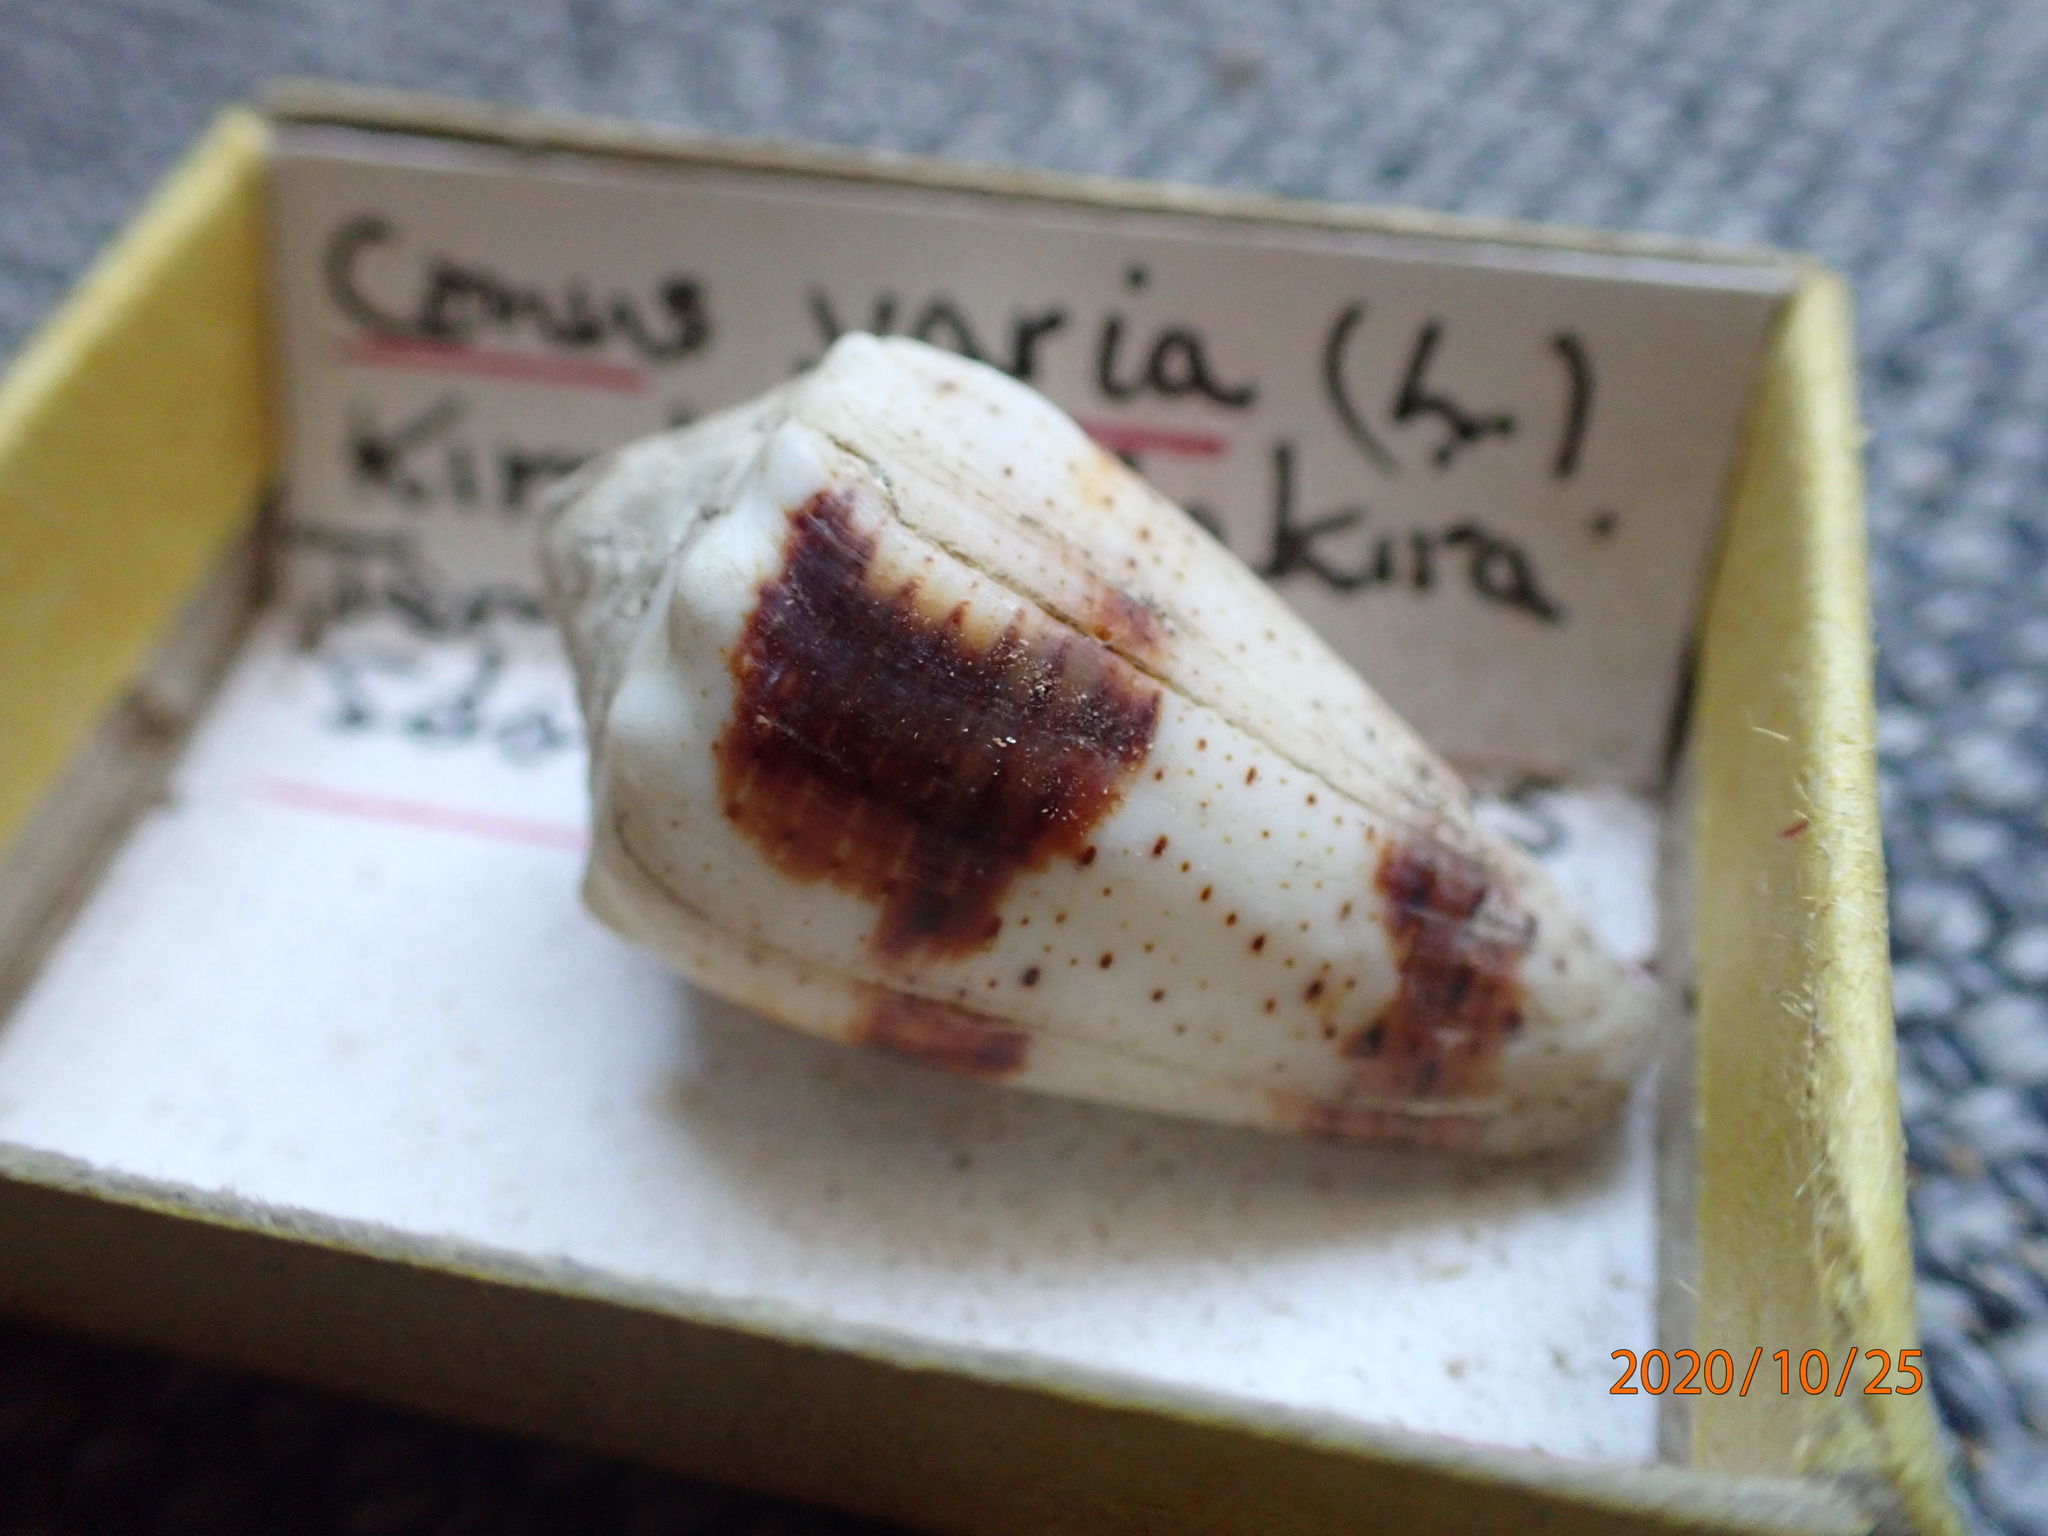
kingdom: Animalia
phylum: Mollusca
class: Gastropoda
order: Neogastropoda
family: Conidae
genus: Conus
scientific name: Conus varius
